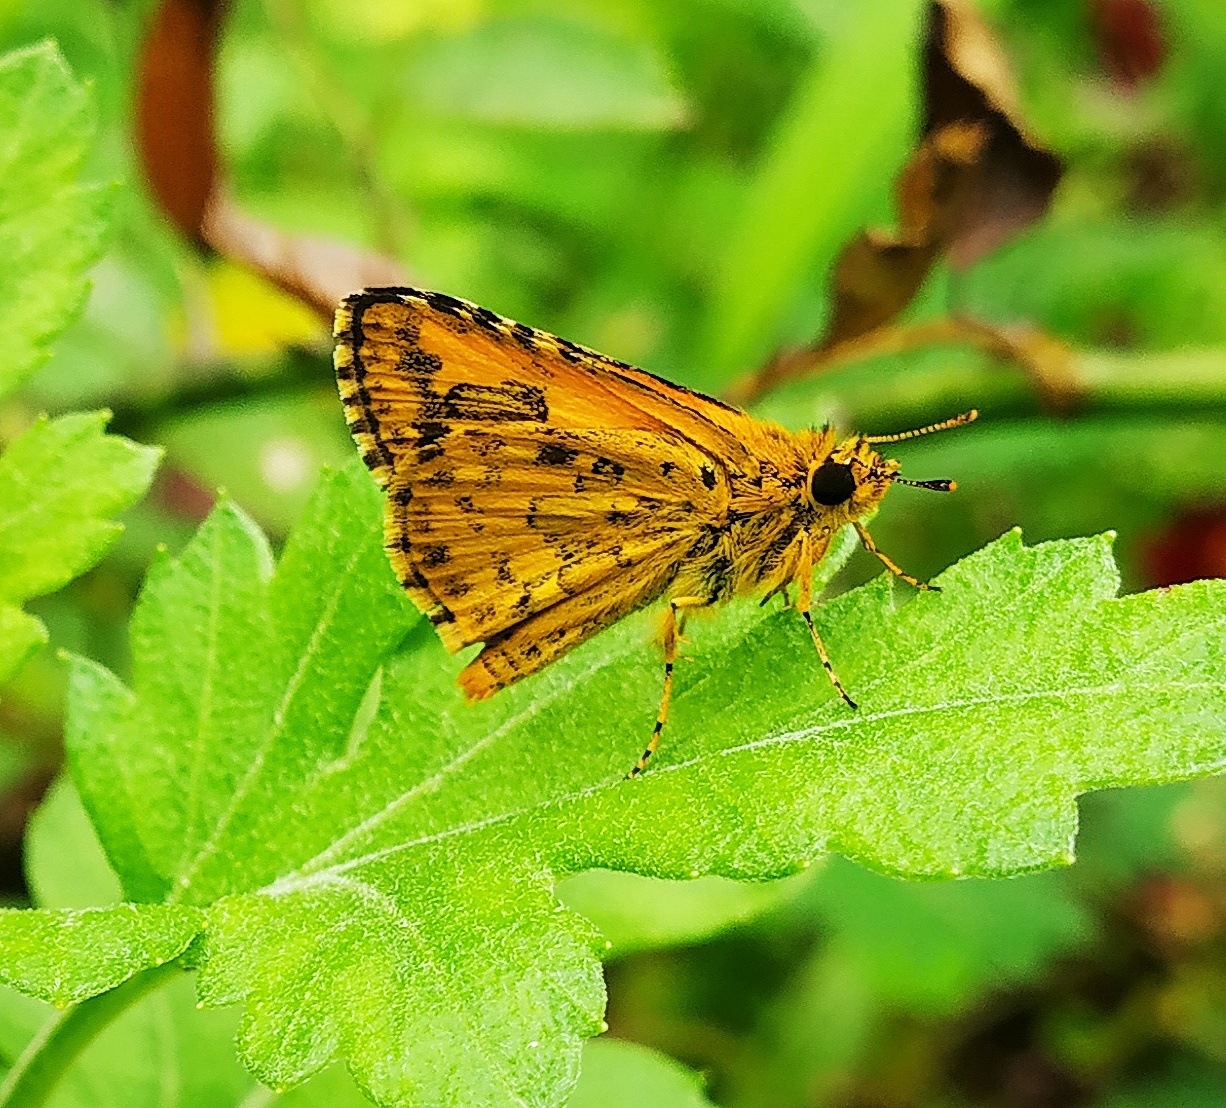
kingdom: Animalia
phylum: Arthropoda
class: Insecta
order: Lepidoptera
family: Hesperiidae
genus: Ampittia
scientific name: Ampittia dioscorides
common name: Common bush hopper
